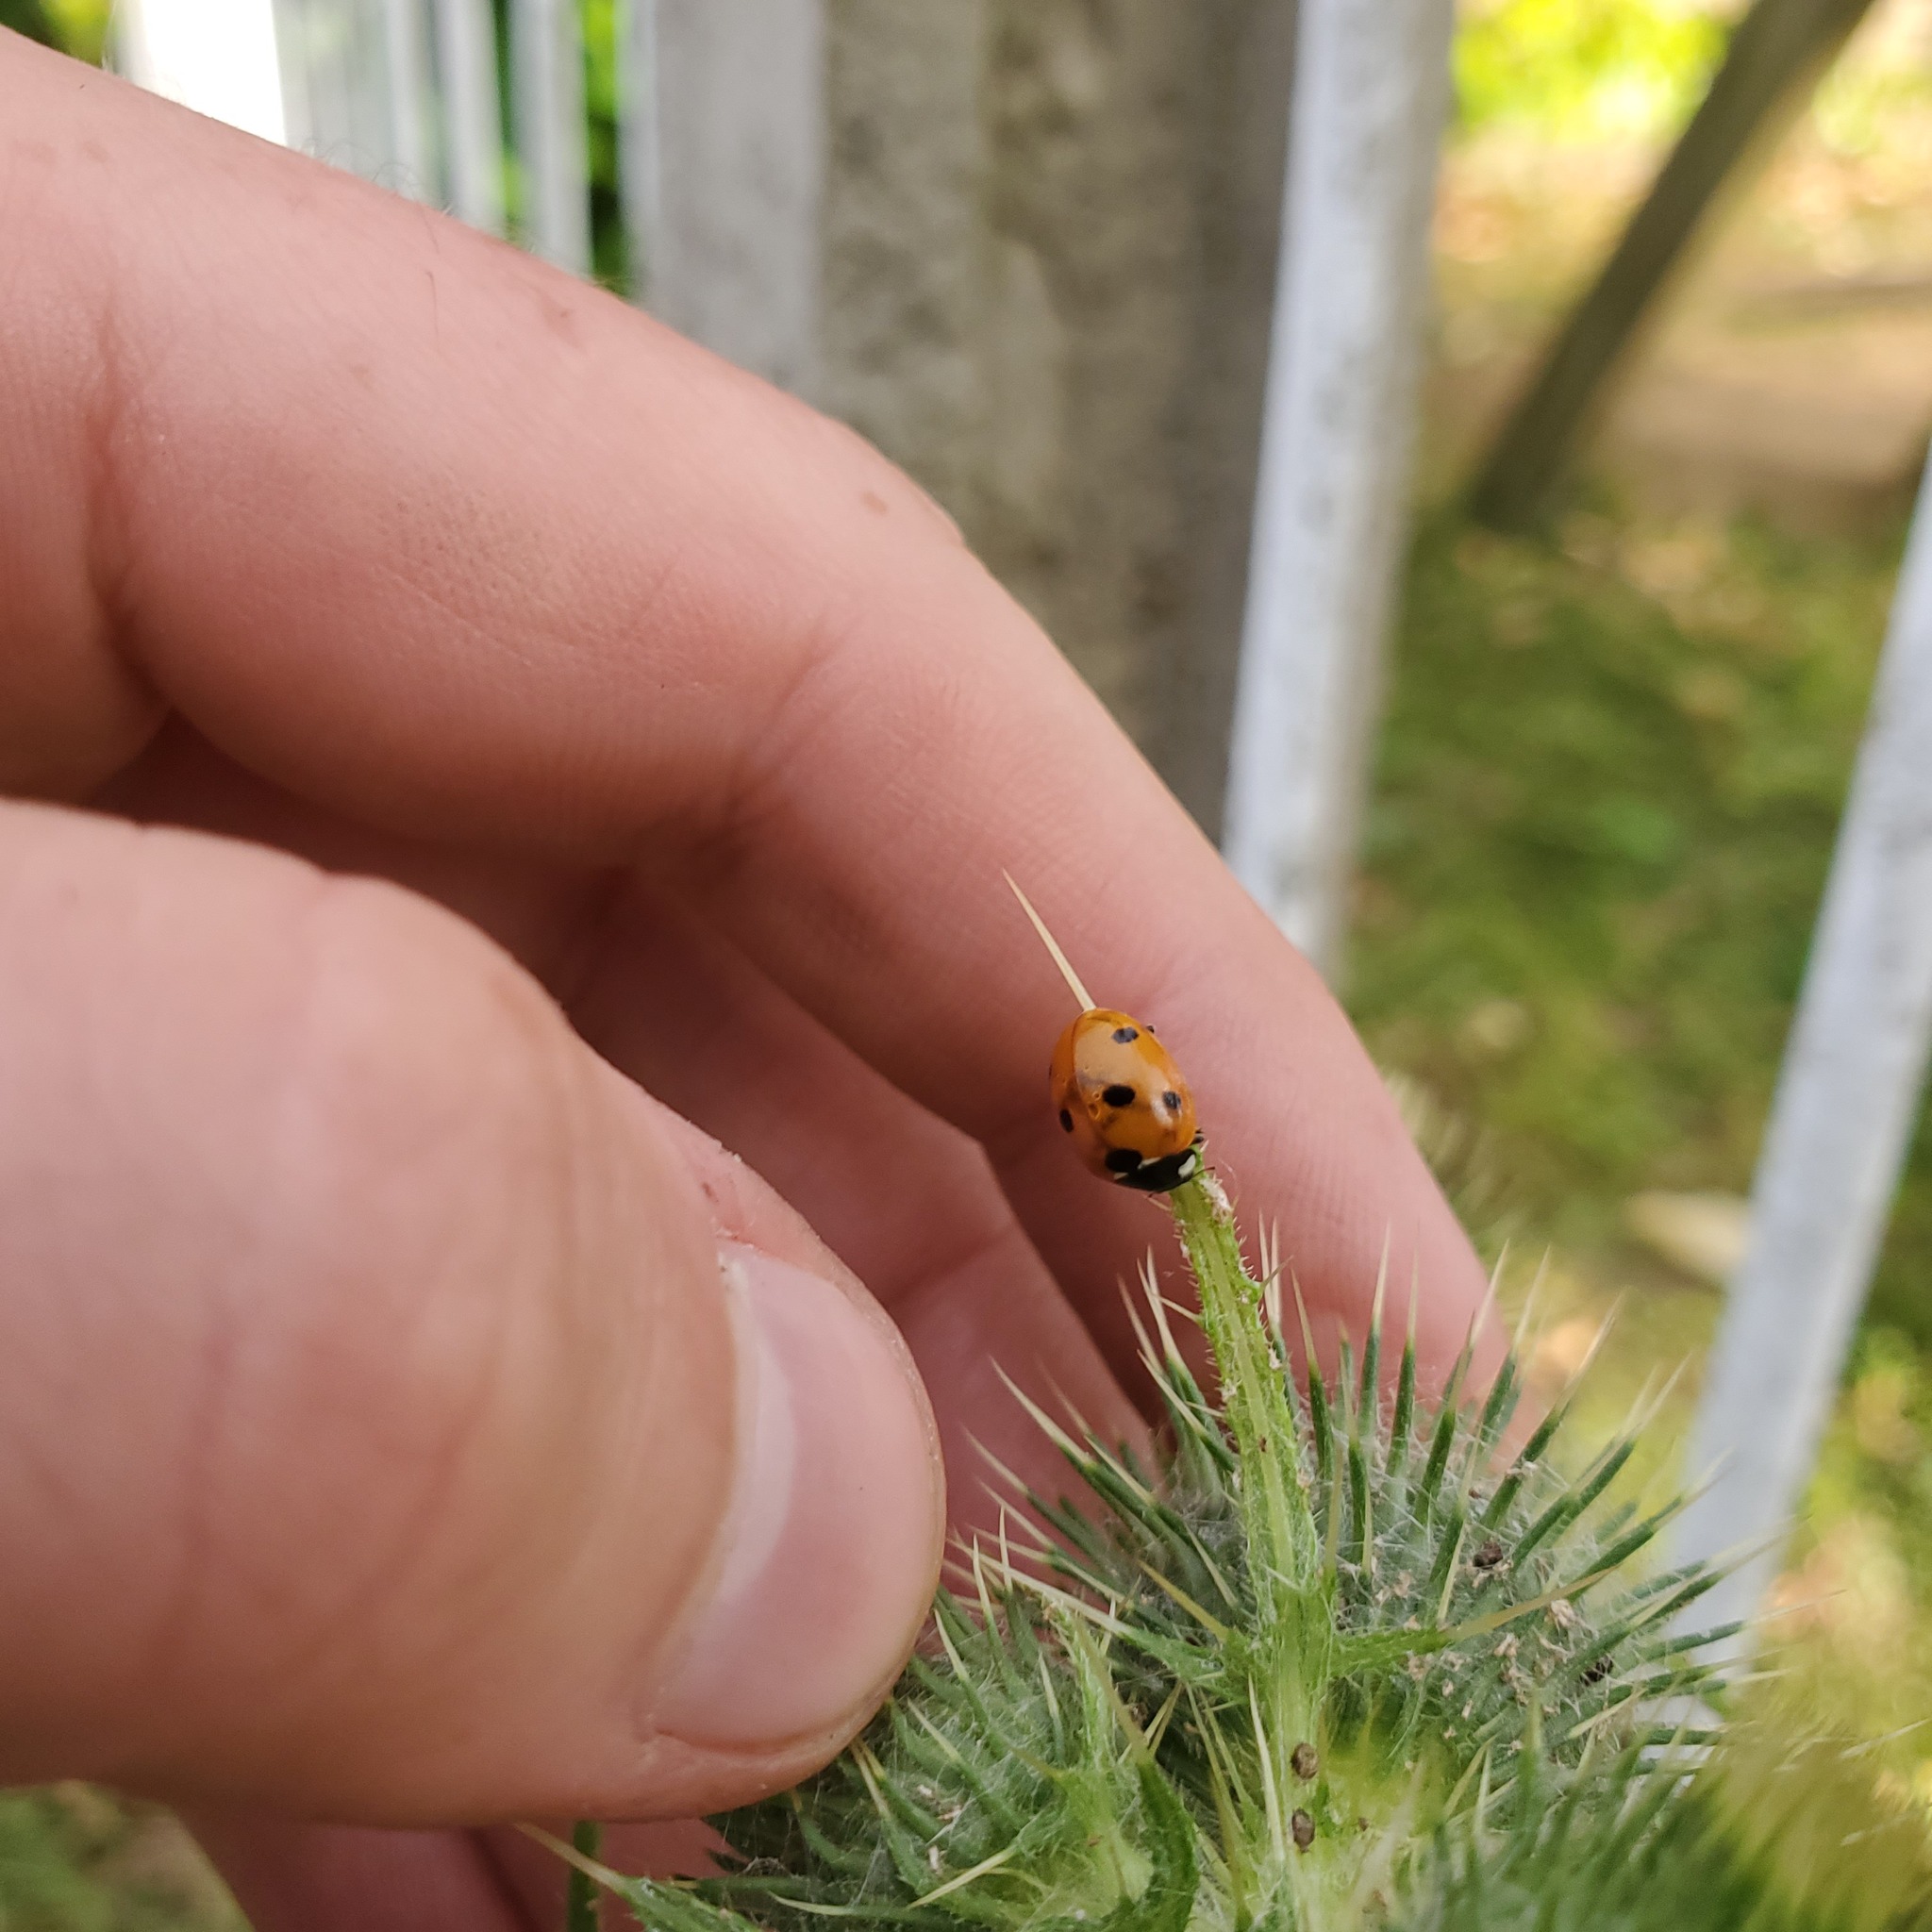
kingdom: Animalia
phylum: Arthropoda
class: Insecta
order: Coleoptera
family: Coccinellidae
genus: Coccinella
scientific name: Coccinella septempunctata
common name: Sevenspotted lady beetle
